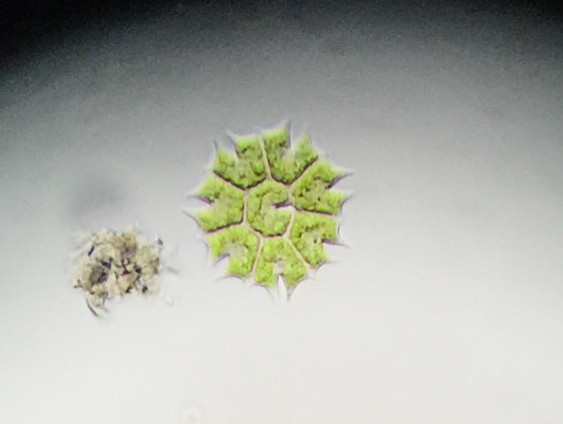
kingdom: Plantae
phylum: Chlorophyta
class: Chlorophyceae
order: Sphaeropleales
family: Hydrodictyaceae
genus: Stauridium
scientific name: Stauridium tetras
